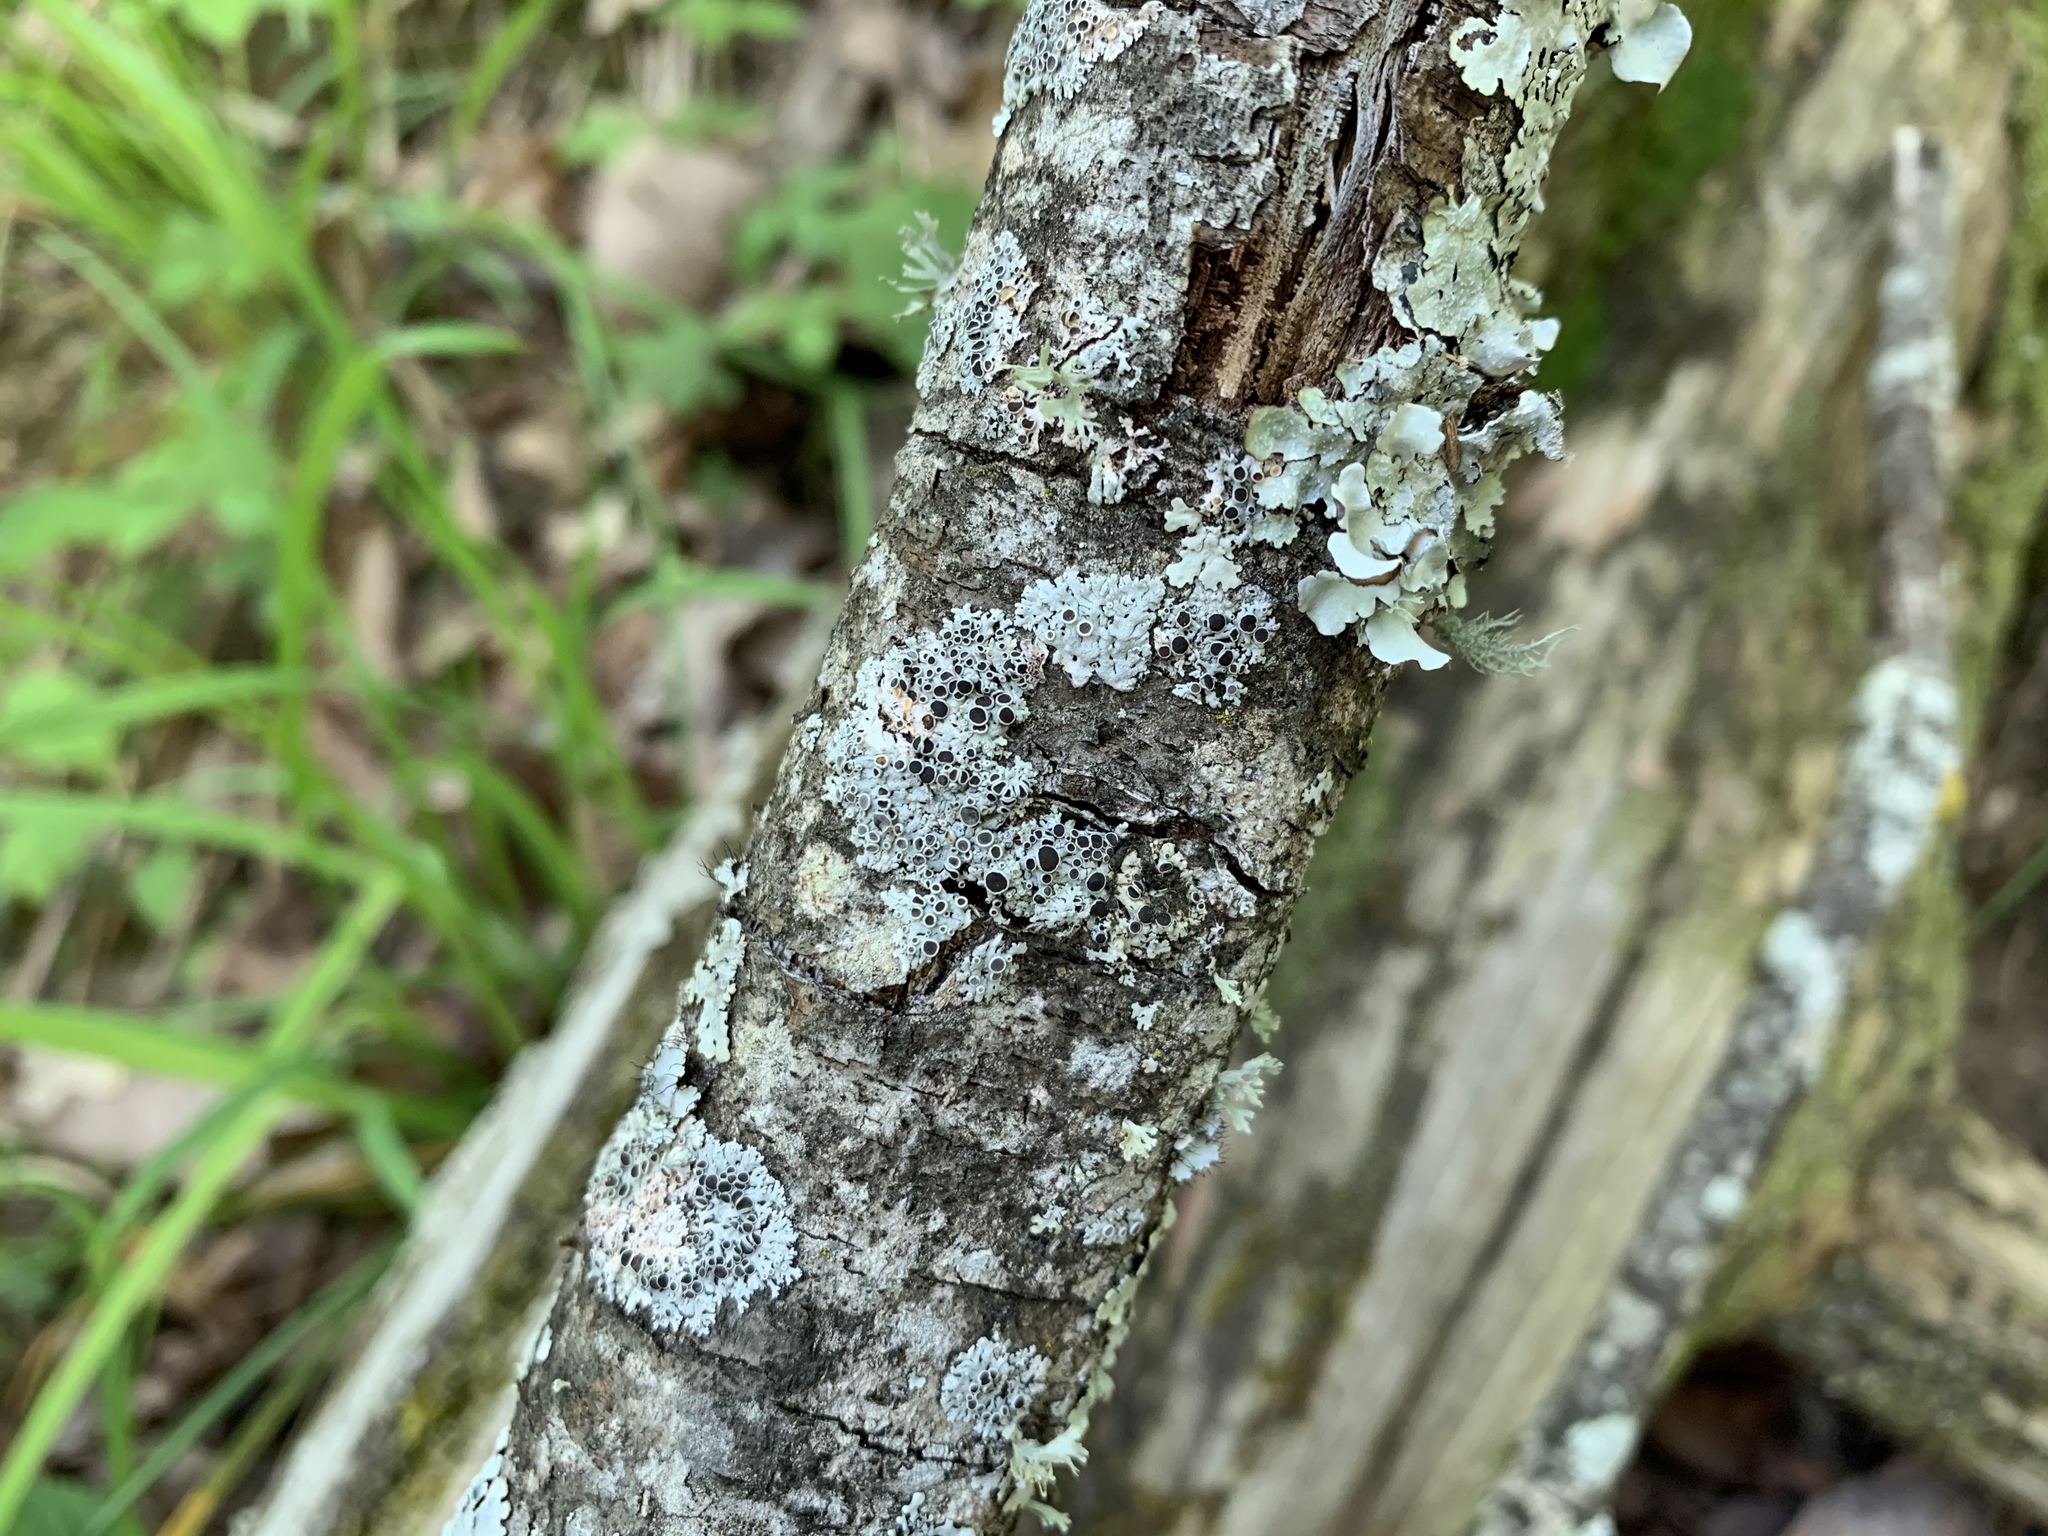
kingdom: Fungi
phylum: Ascomycota
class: Lecanoromycetes
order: Caliciales
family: Physciaceae
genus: Physcia
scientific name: Physcia pumilior
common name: Lesser gray legs
